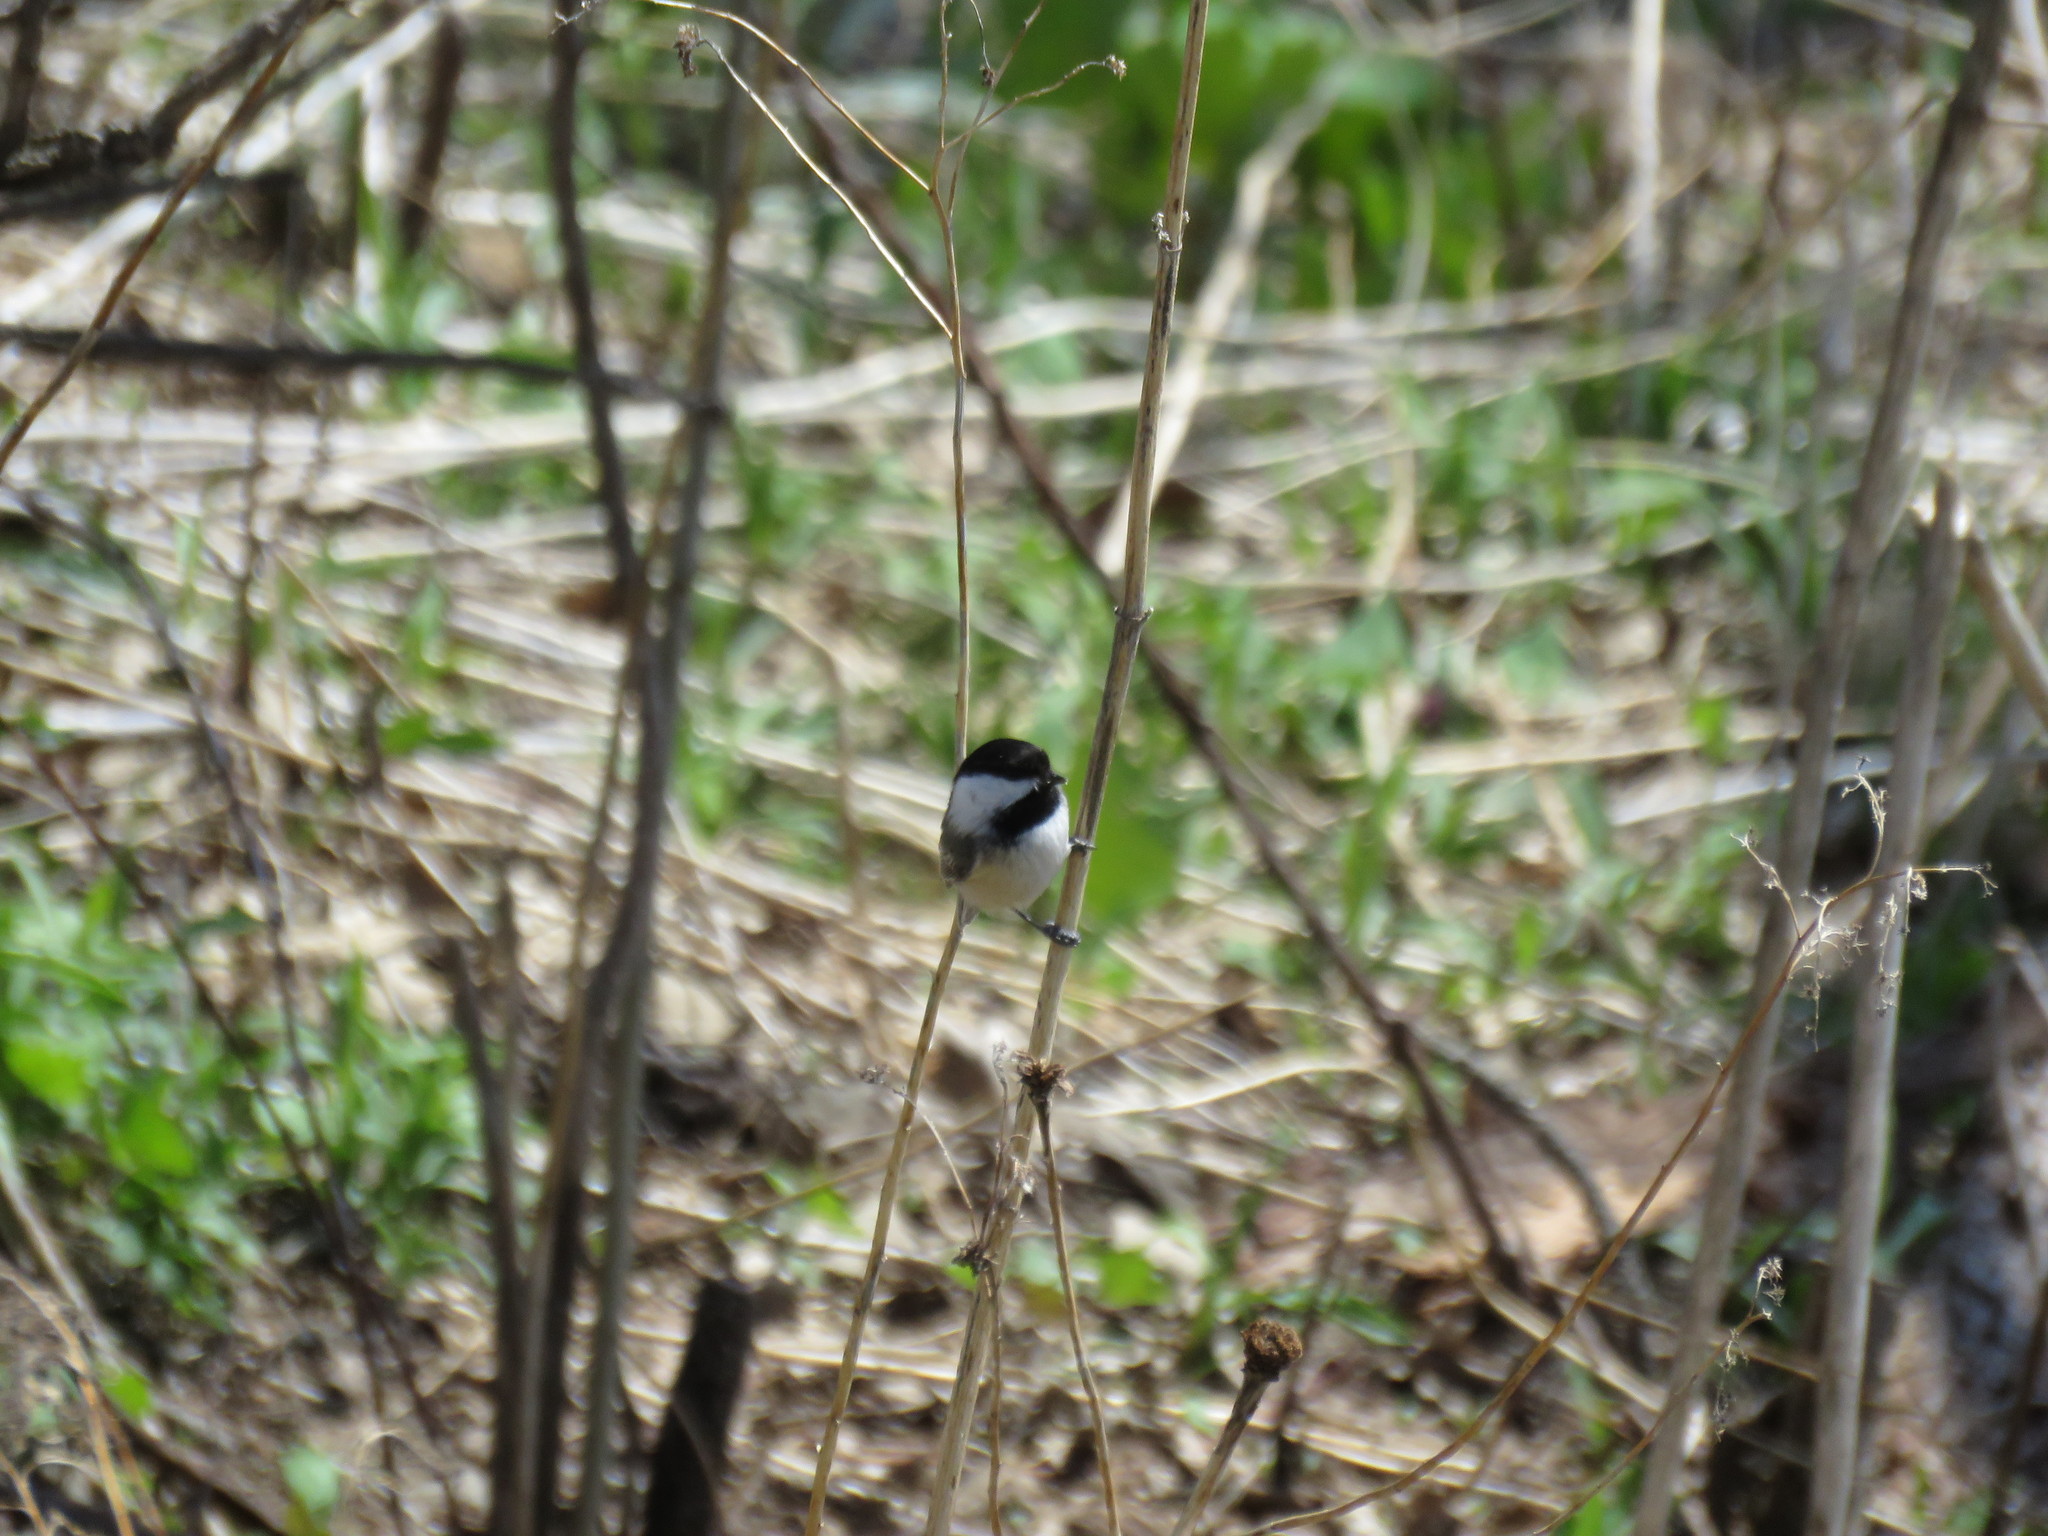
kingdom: Animalia
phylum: Chordata
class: Aves
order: Passeriformes
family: Paridae
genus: Poecile
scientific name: Poecile atricapillus
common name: Black-capped chickadee
